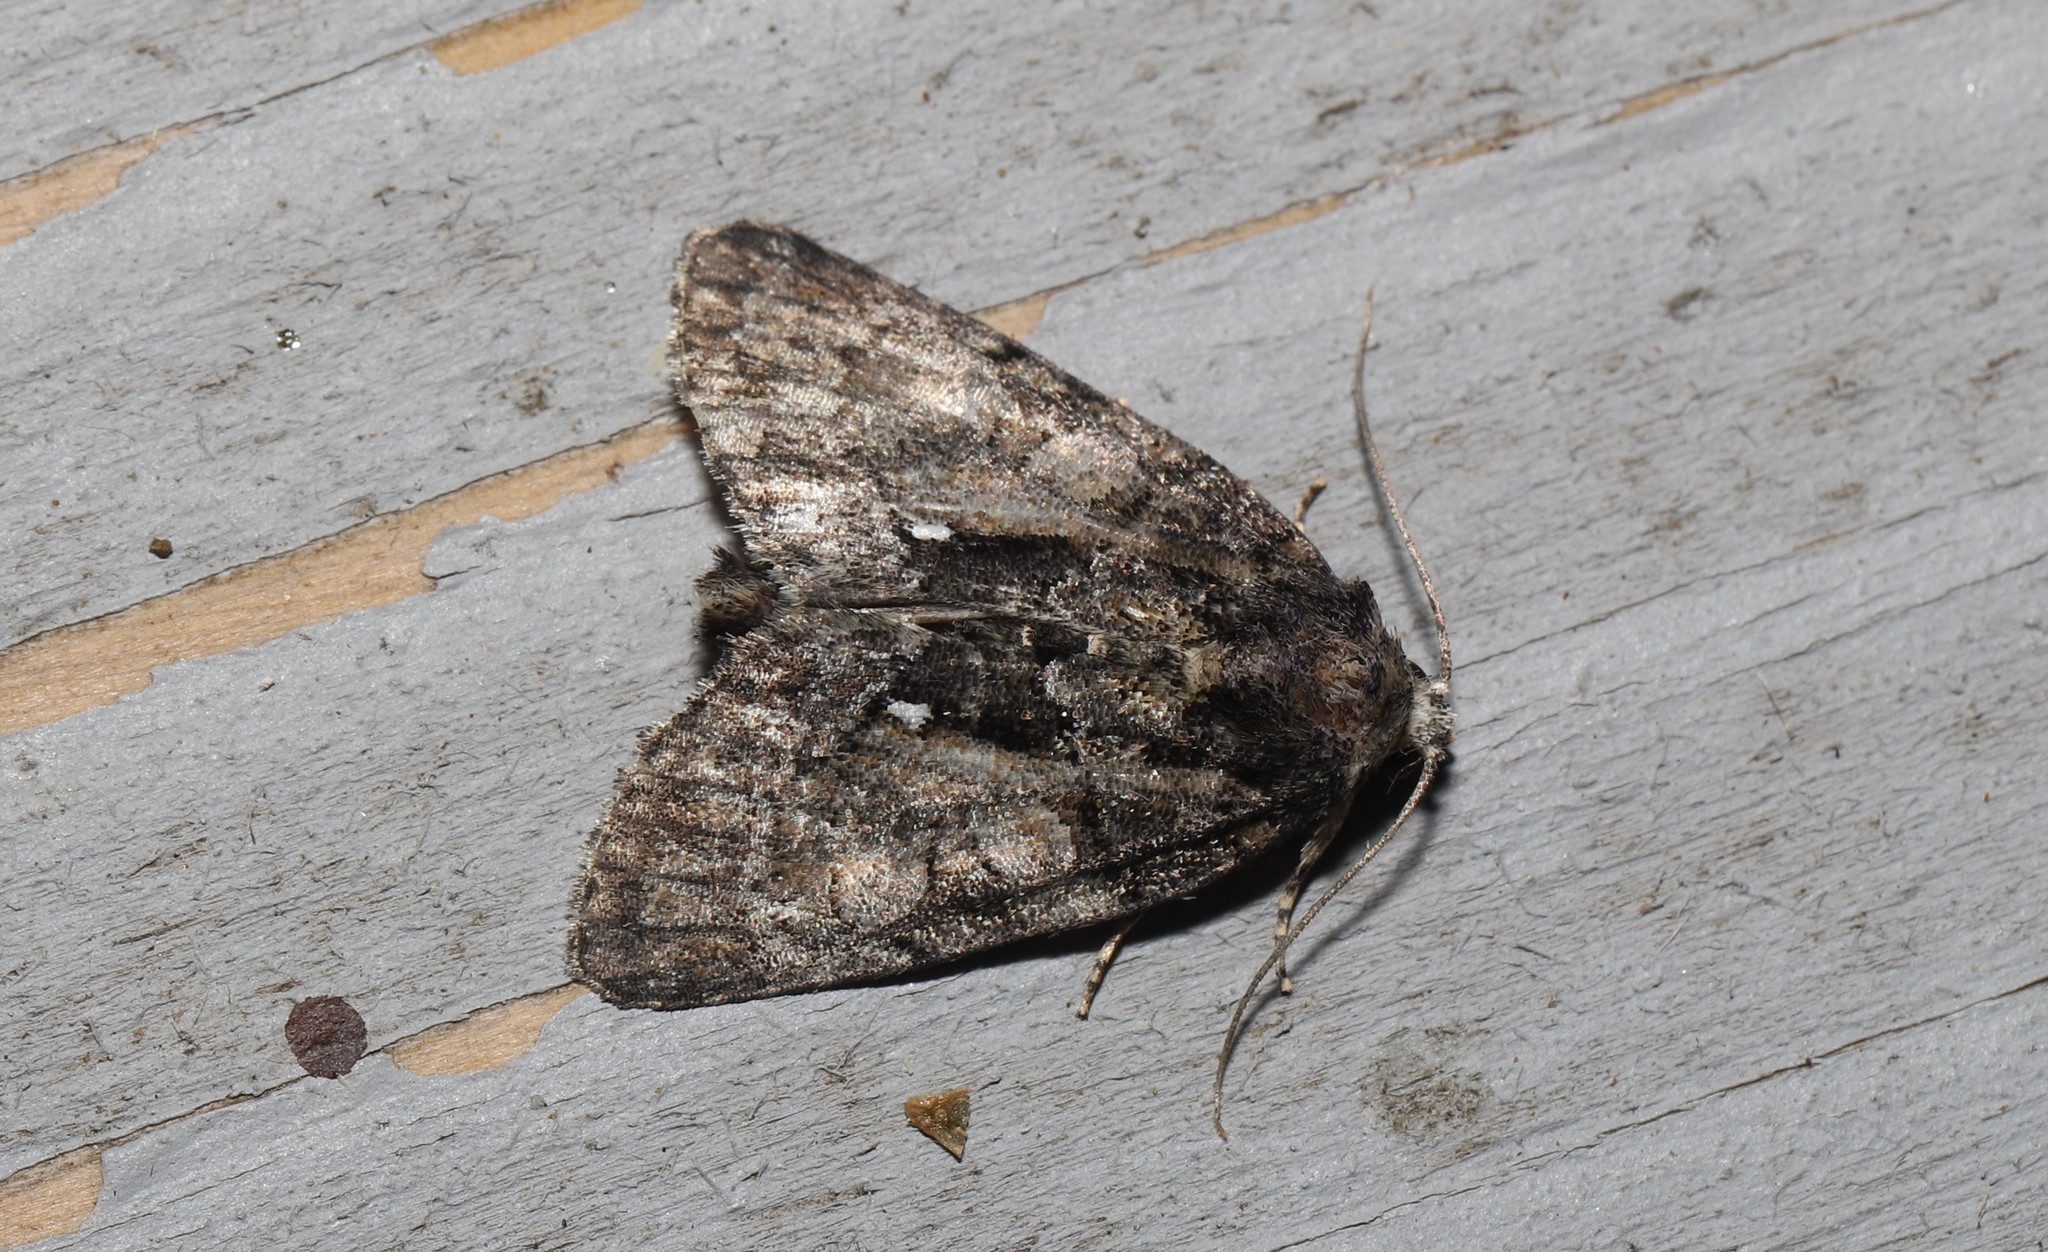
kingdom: Animalia
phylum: Arthropoda
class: Insecta
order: Lepidoptera
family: Noctuidae
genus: Chytonix
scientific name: Chytonix palliatricula
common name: Cloaked marvel
